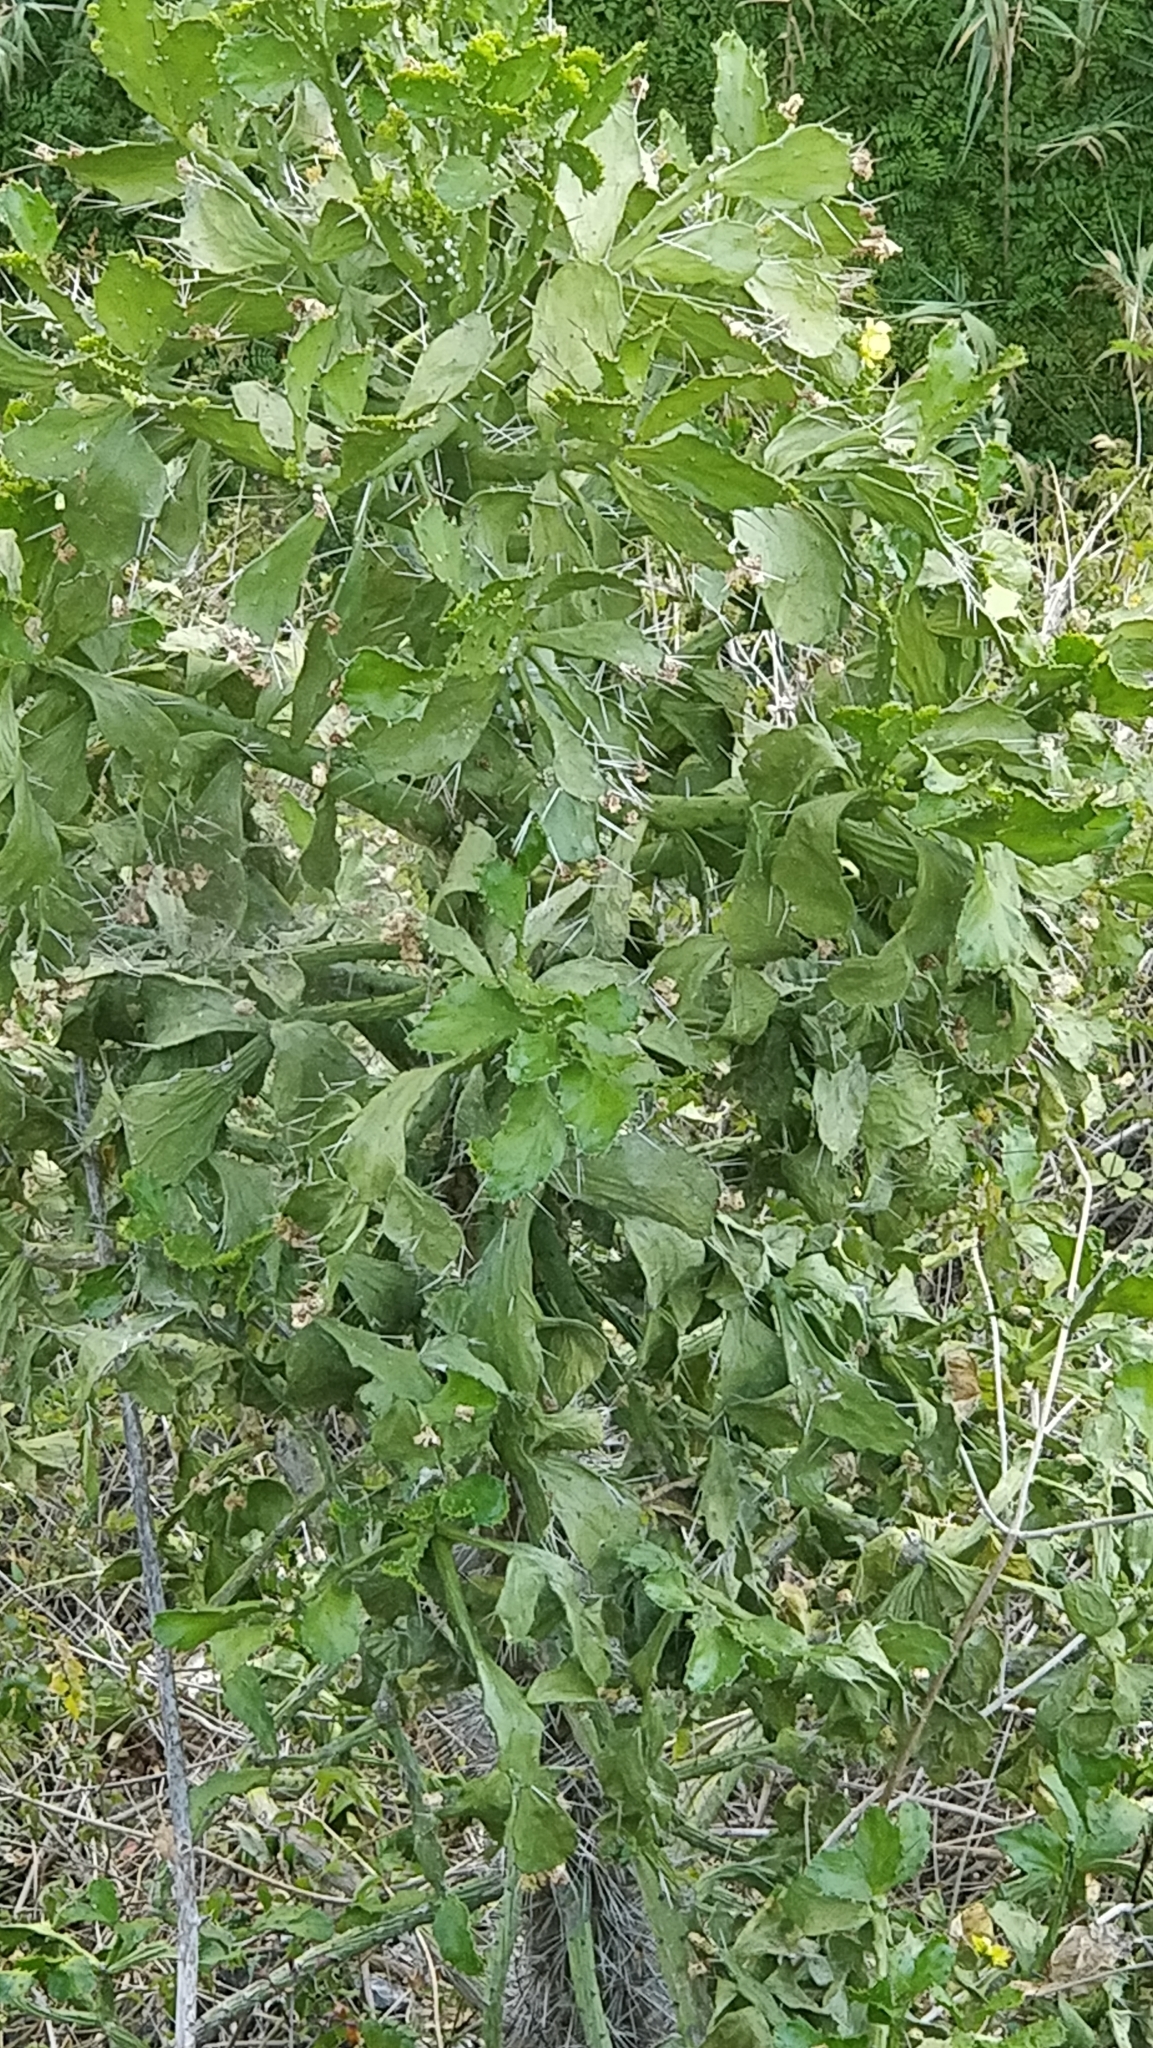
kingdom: Plantae
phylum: Tracheophyta
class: Magnoliopsida
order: Caryophyllales
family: Cactaceae
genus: Brasiliopuntia
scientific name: Brasiliopuntia brasiliensis
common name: Brazilian pricklypear
